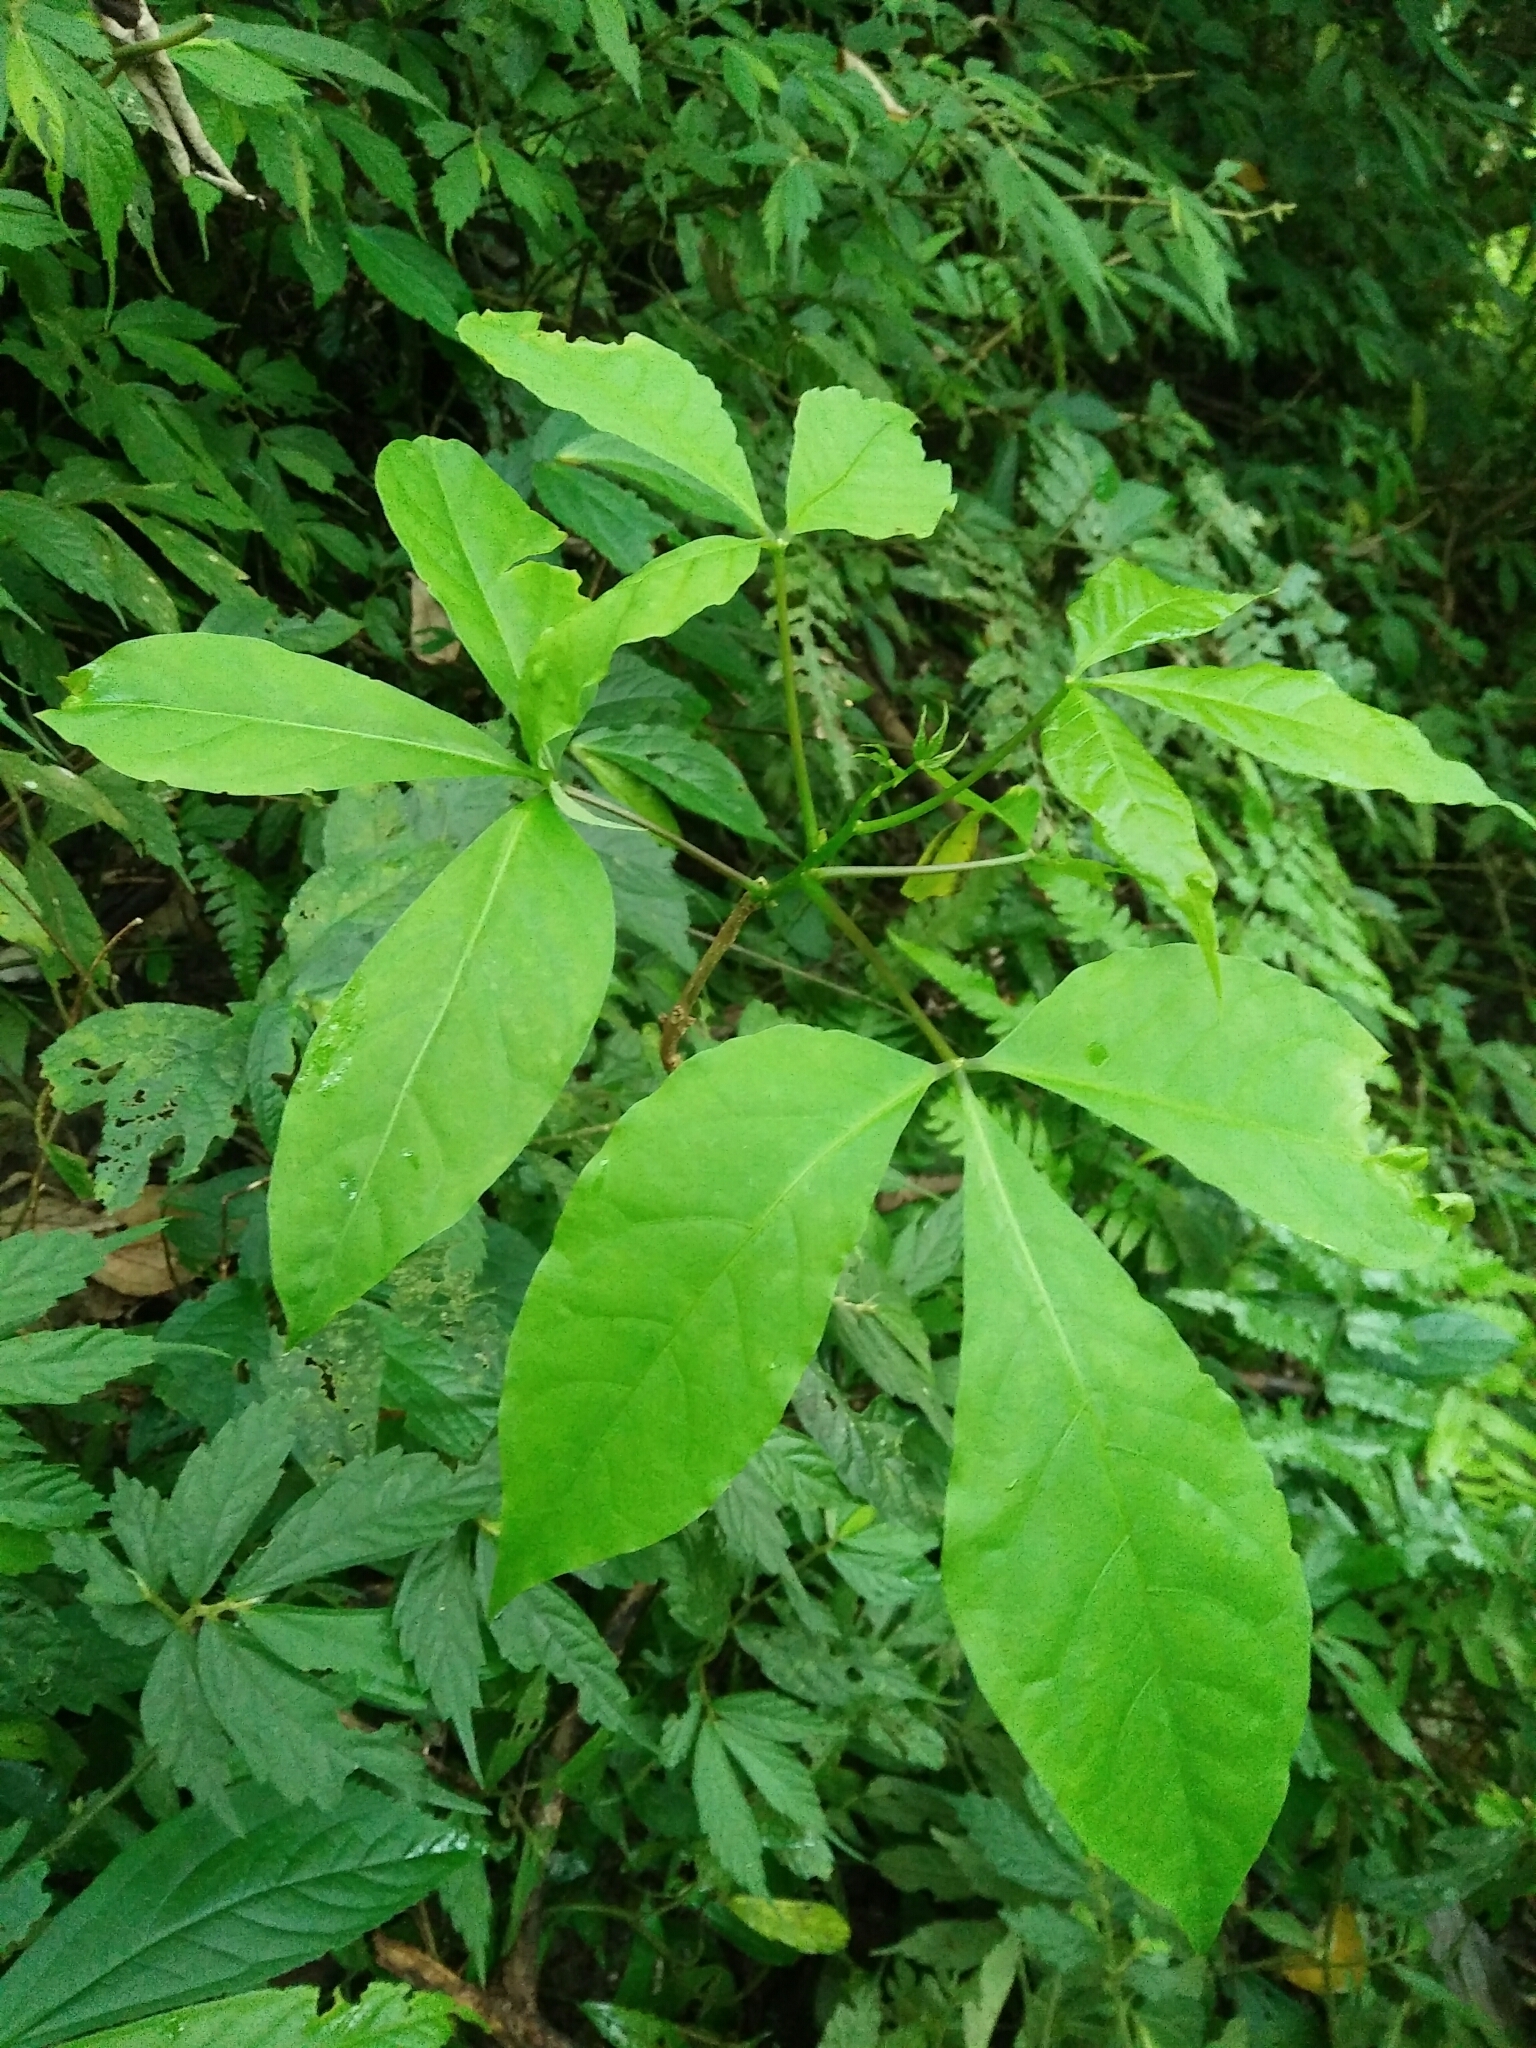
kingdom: Plantae
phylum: Tracheophyta
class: Magnoliopsida
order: Brassicales
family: Capparaceae
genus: Crateva
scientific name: Crateva formosensis
